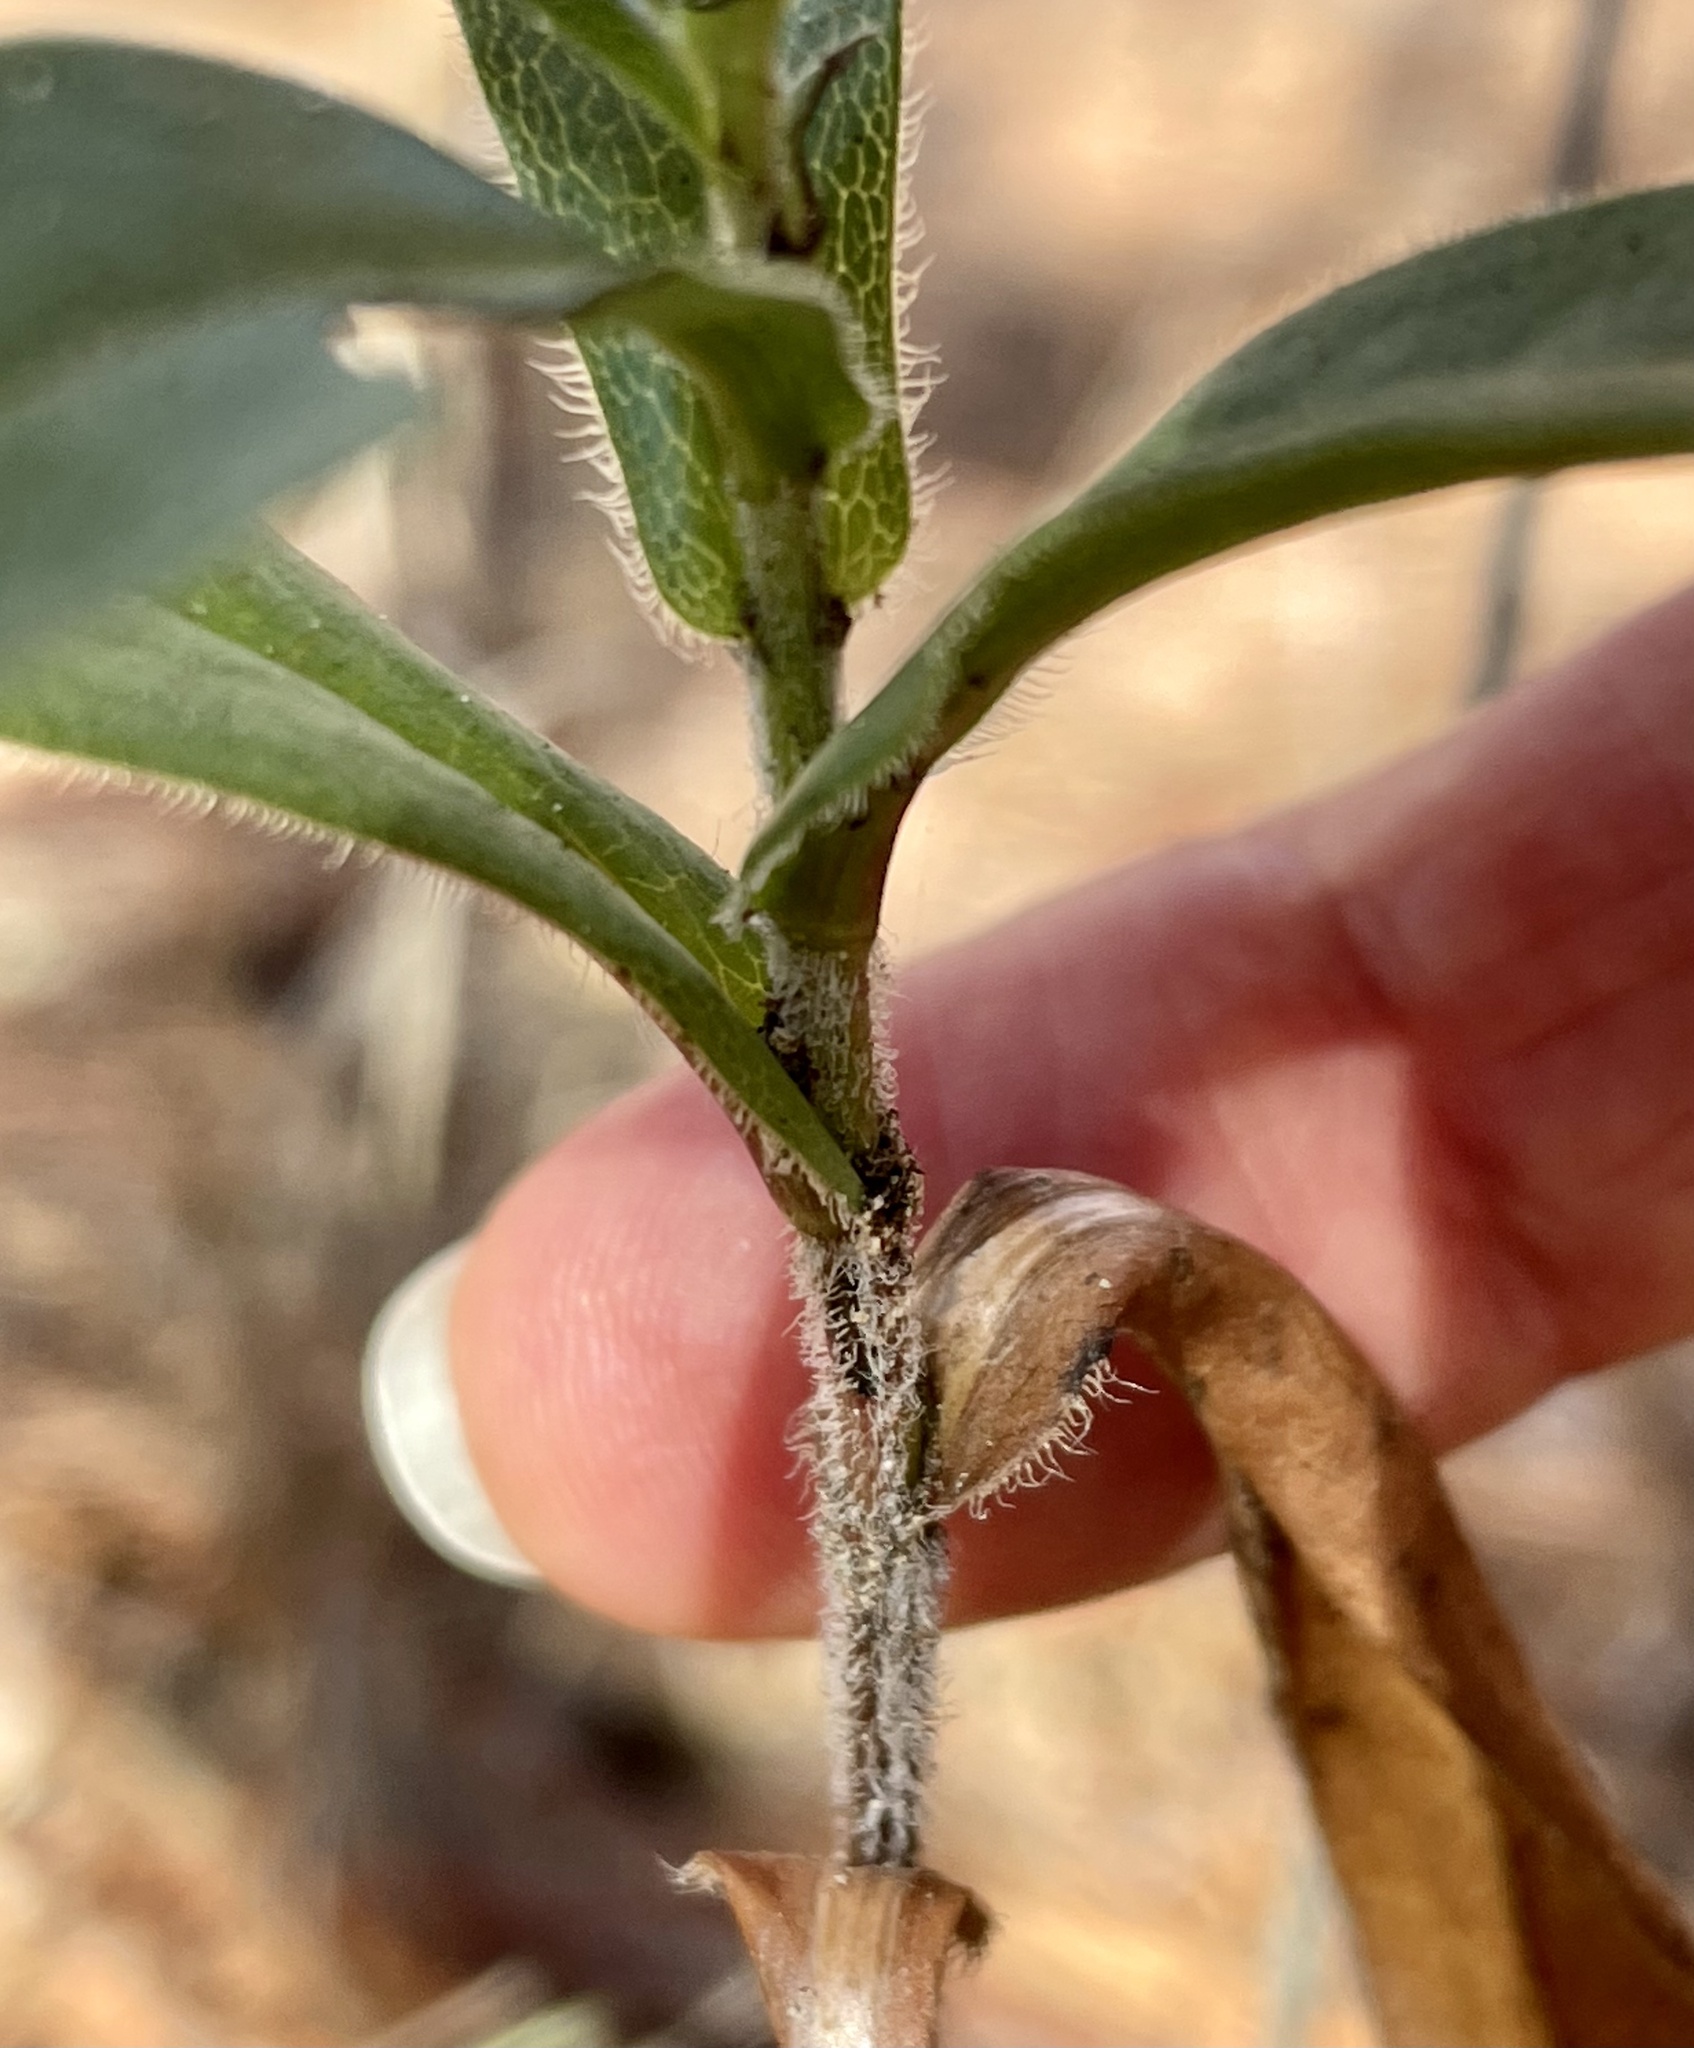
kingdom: Plantae
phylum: Tracheophyta
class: Magnoliopsida
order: Asterales
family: Asteraceae
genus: Symphyotrichum
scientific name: Symphyotrichum chilense
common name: Pacific aster
